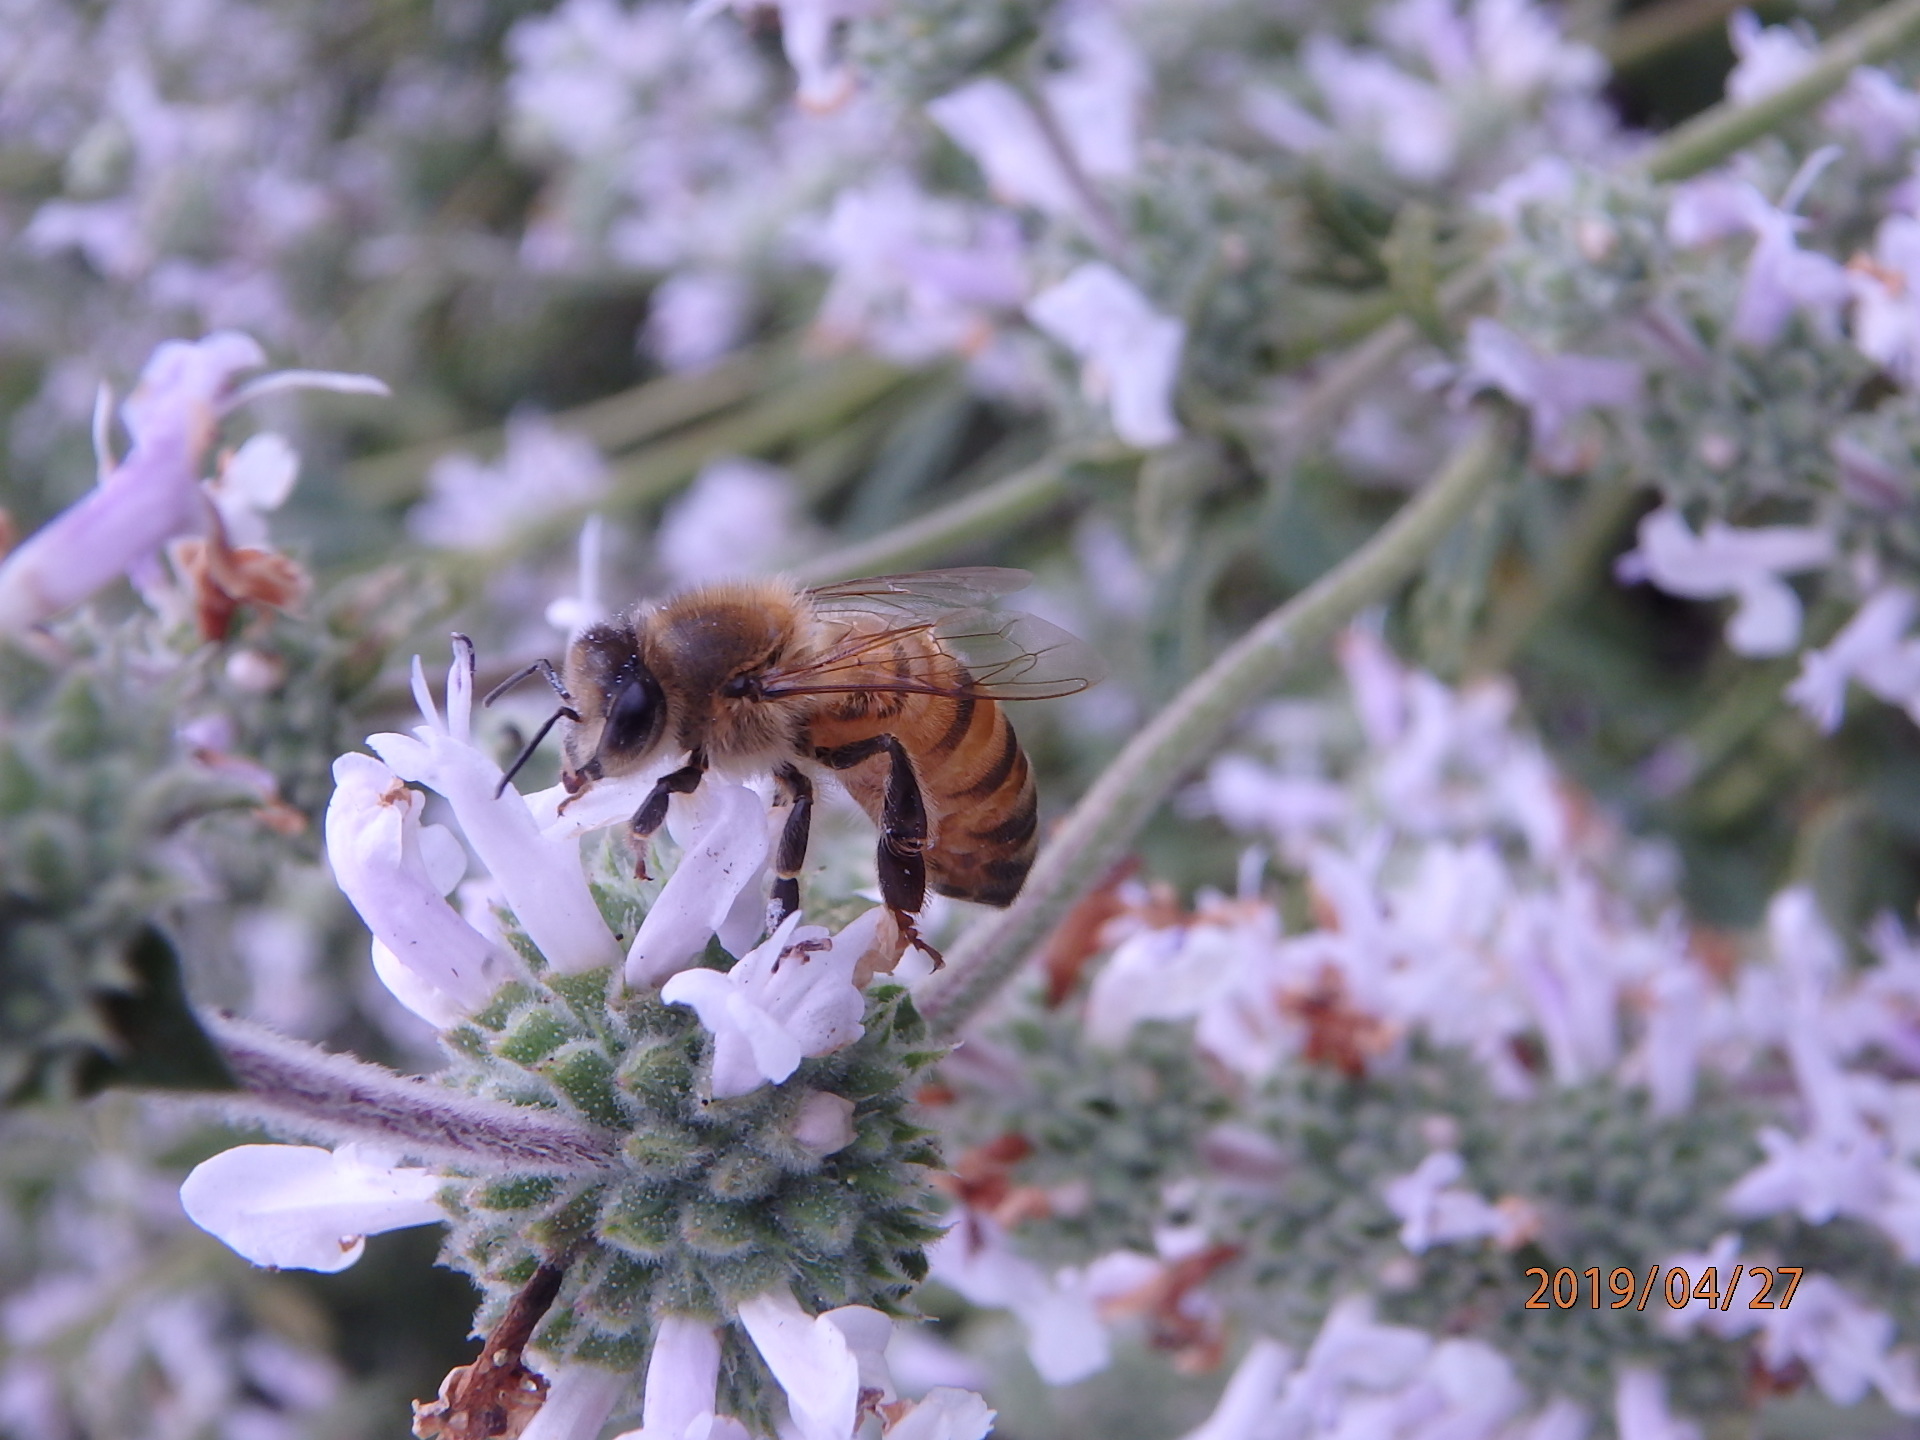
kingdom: Animalia
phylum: Arthropoda
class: Insecta
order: Hymenoptera
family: Apidae
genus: Apis
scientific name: Apis mellifera
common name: Honey bee
